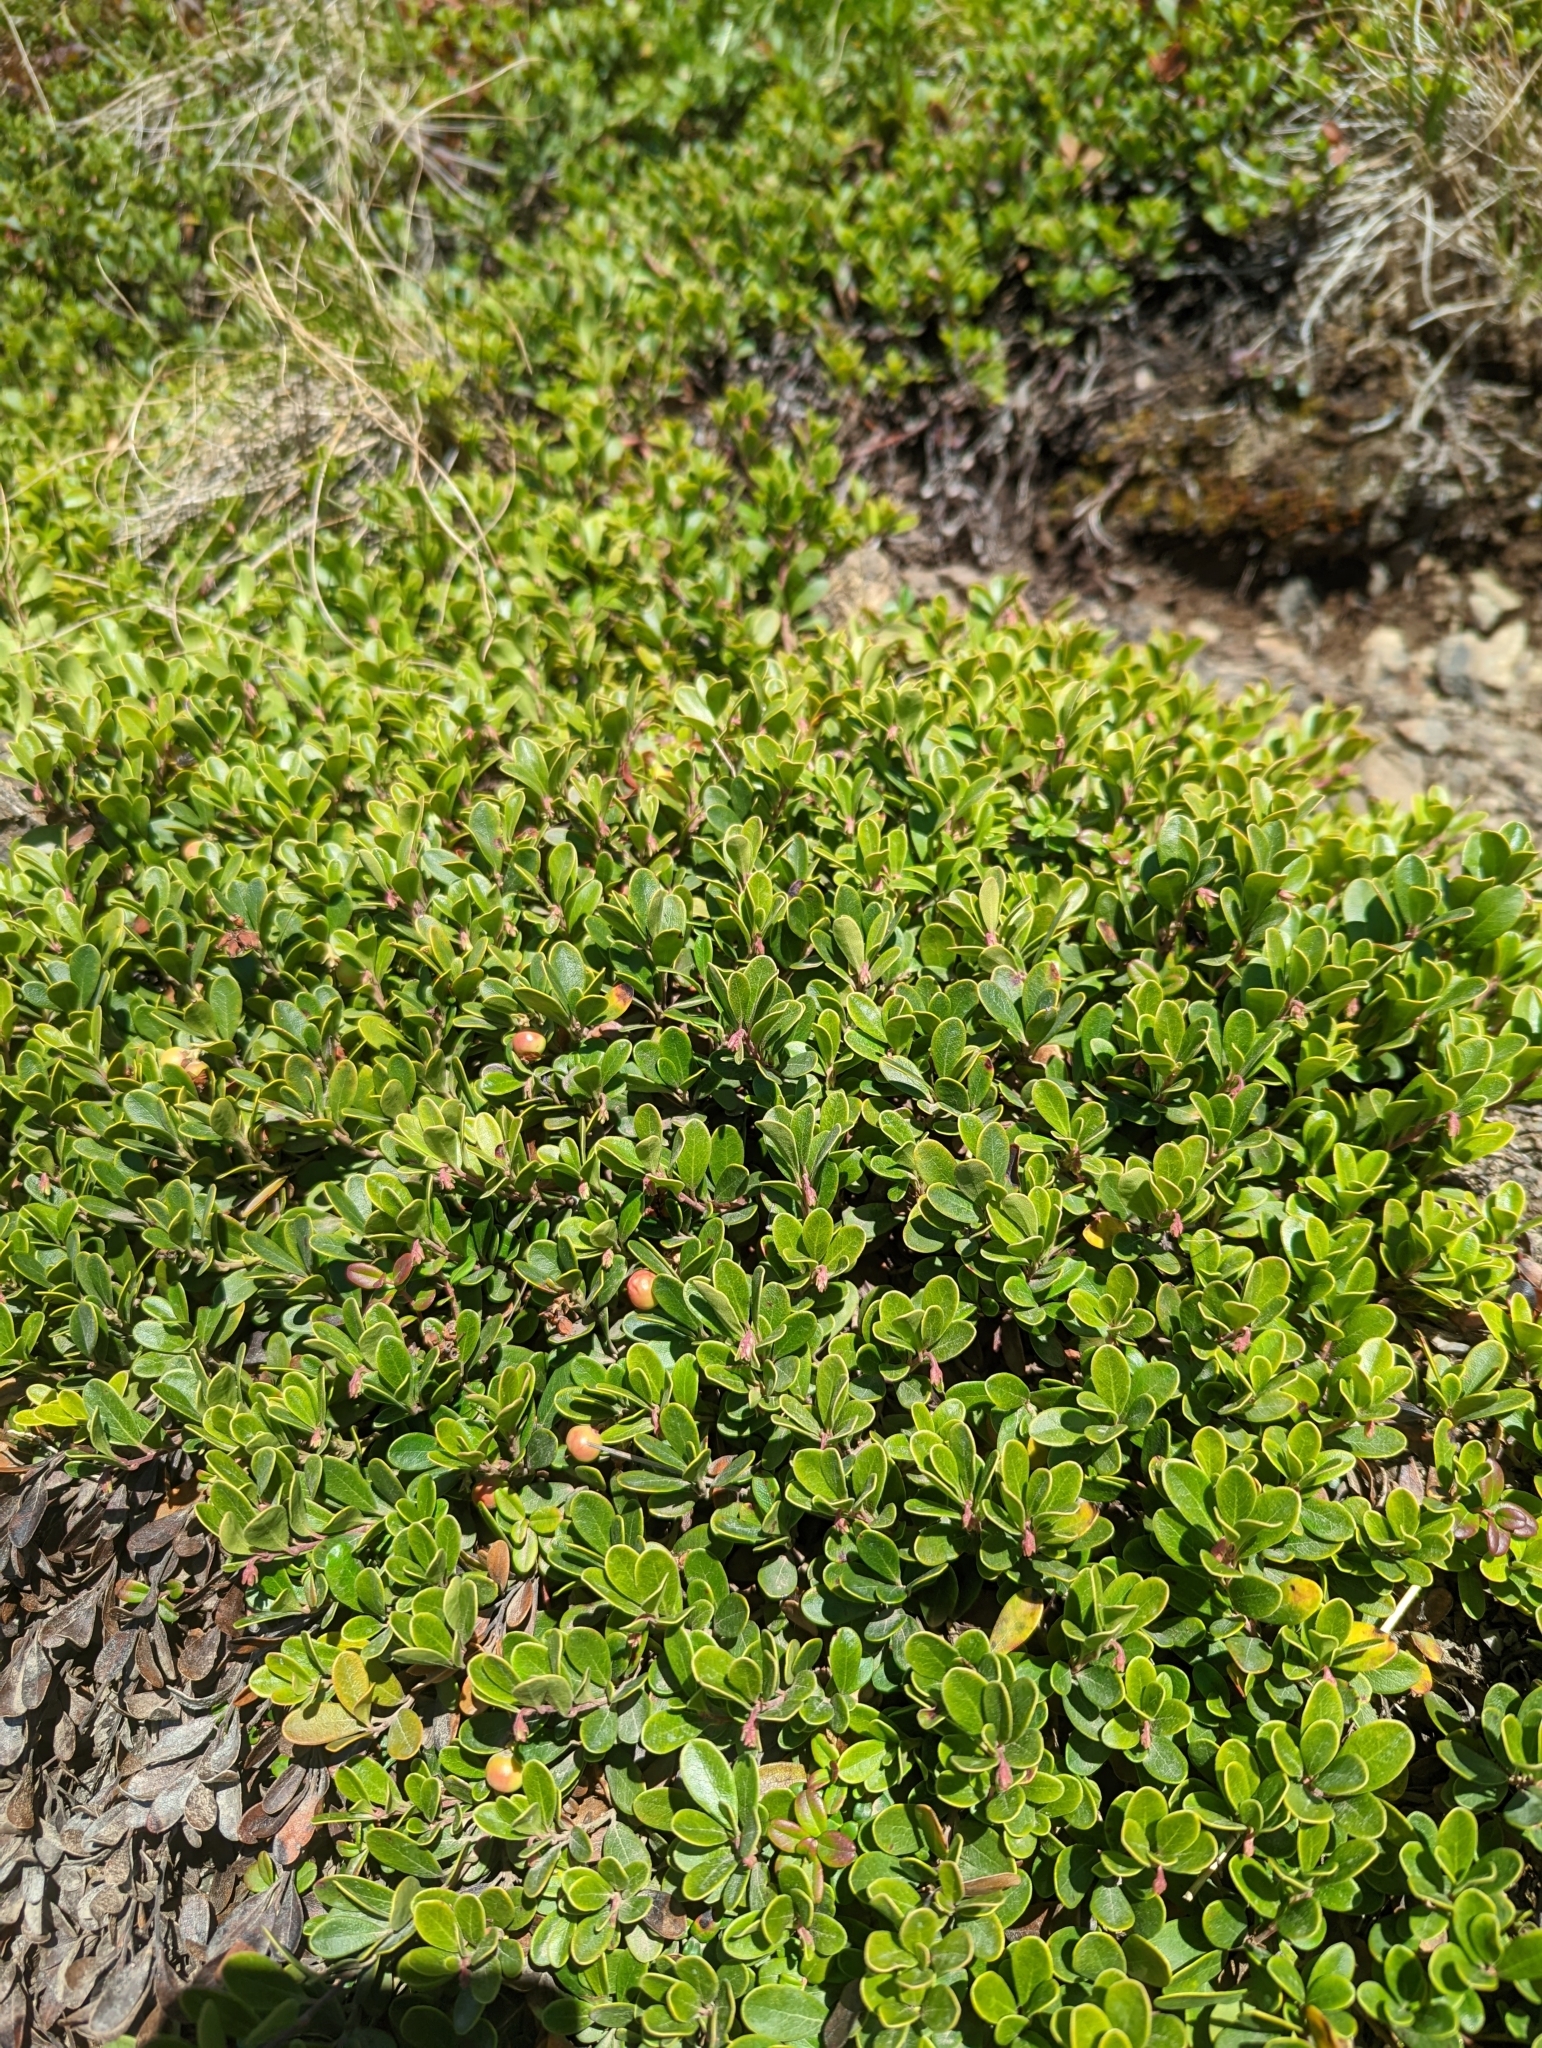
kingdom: Plantae
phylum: Tracheophyta
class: Magnoliopsida
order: Ericales
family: Ericaceae
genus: Arctostaphylos
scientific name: Arctostaphylos uva-ursi
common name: Bearberry
